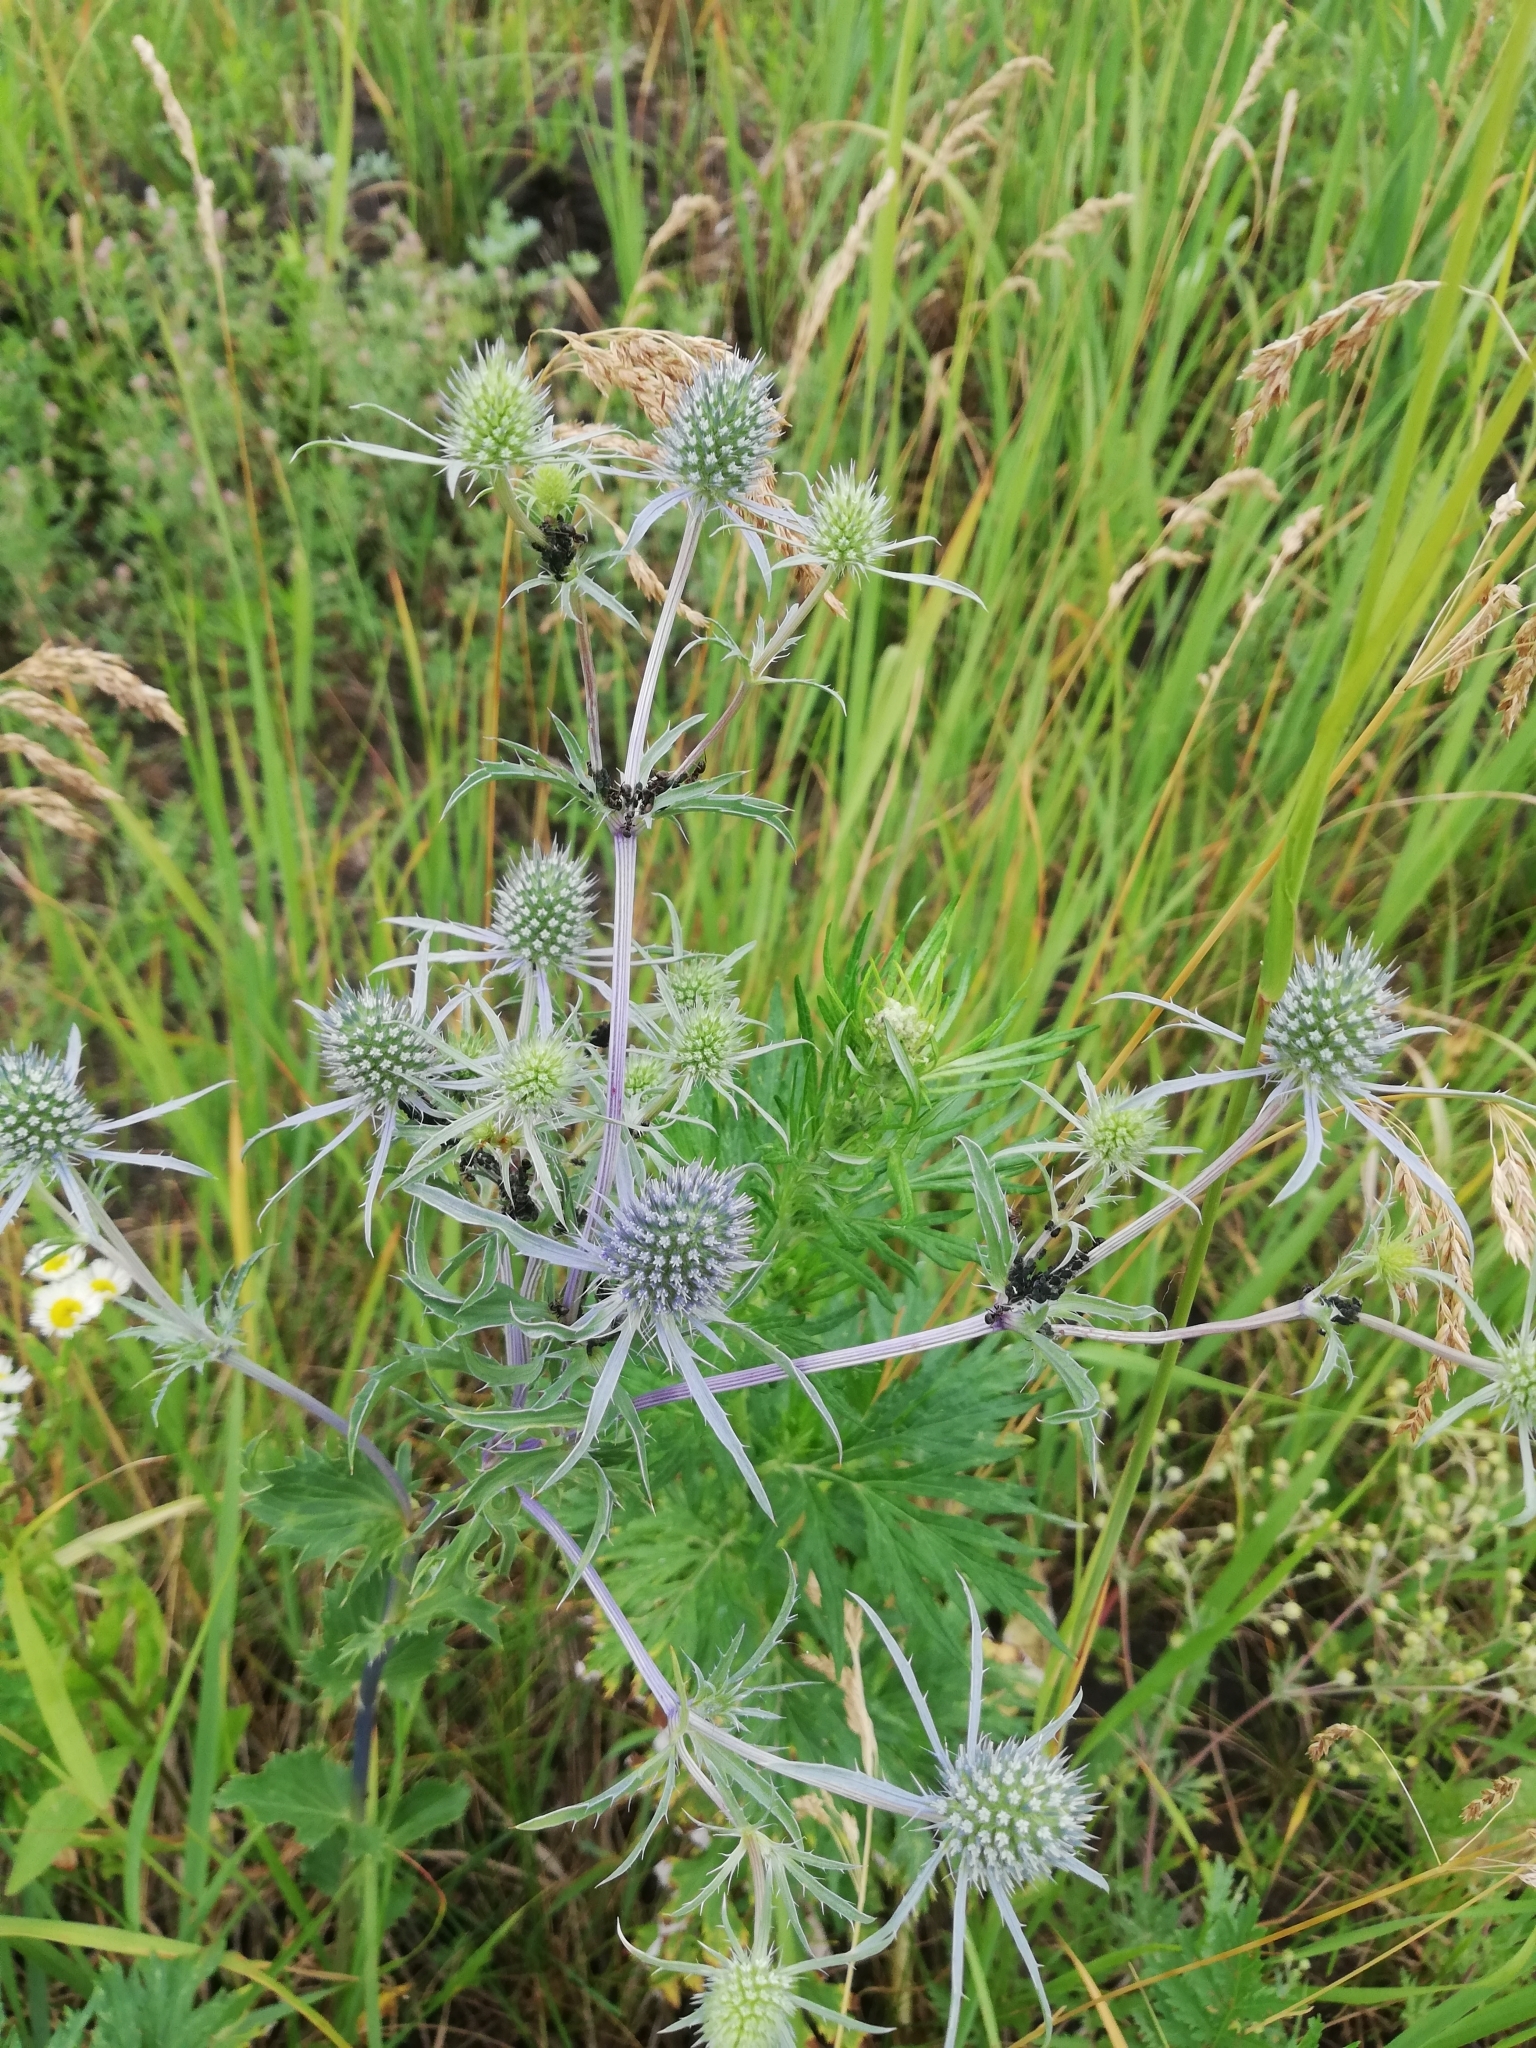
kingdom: Plantae
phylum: Tracheophyta
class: Magnoliopsida
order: Apiales
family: Apiaceae
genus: Eryngium
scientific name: Eryngium planum
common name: Blue eryngo
